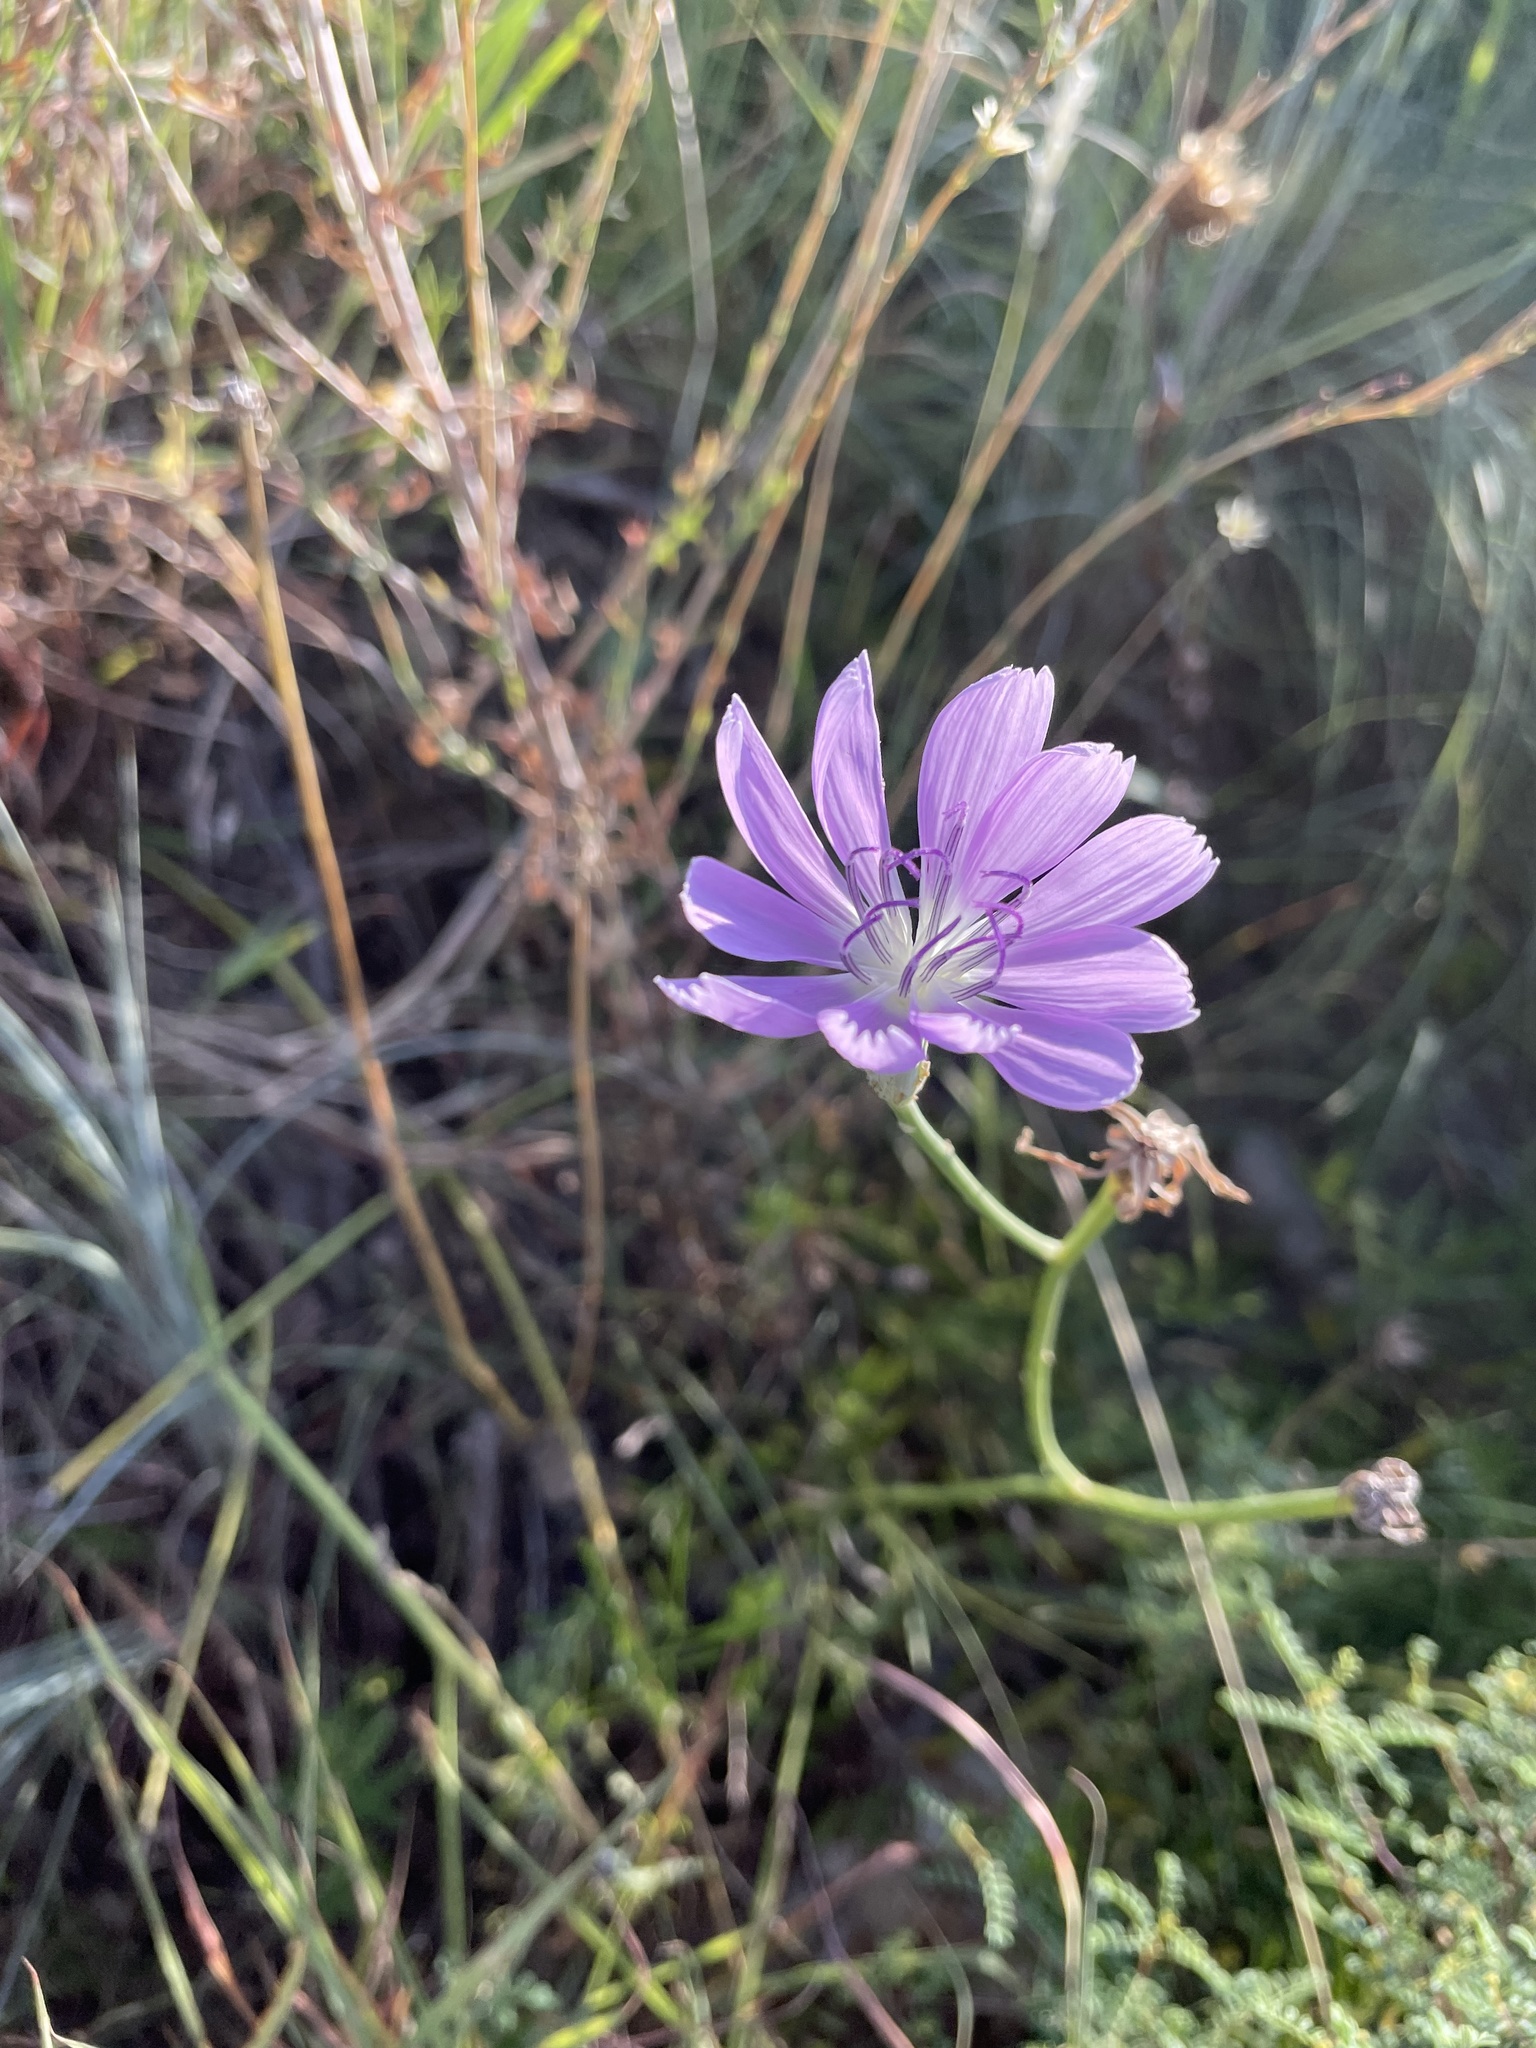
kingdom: Plantae
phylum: Tracheophyta
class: Magnoliopsida
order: Asterales
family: Asteraceae
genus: Lygodesmia
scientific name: Lygodesmia texana
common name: Texas skeleton-plant
